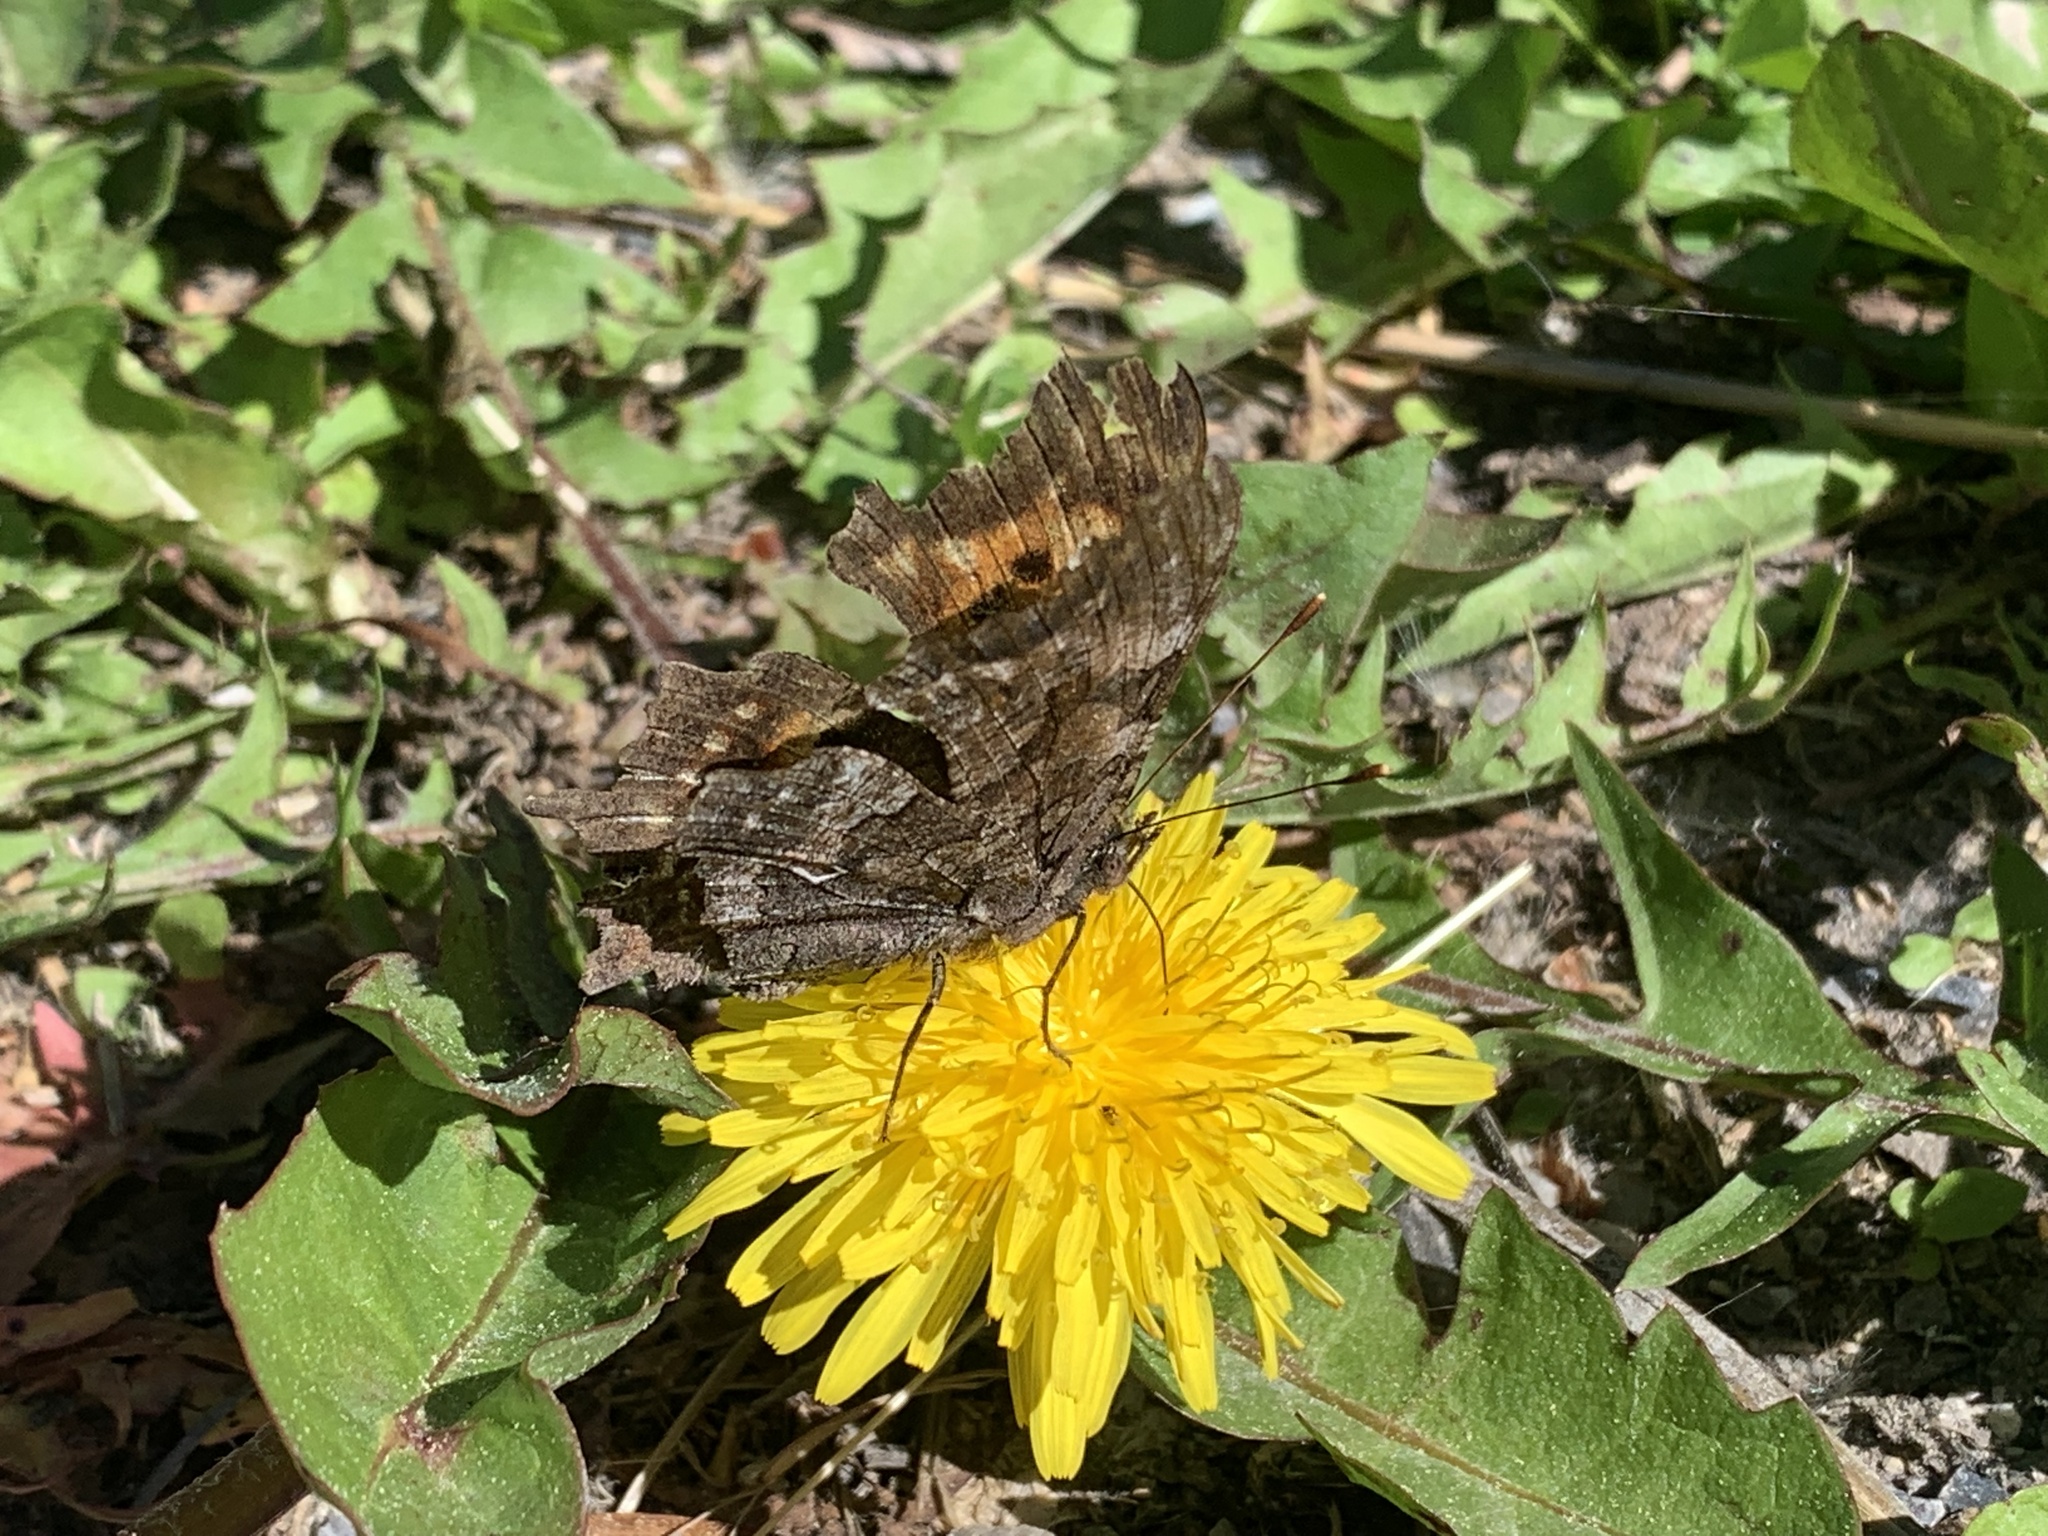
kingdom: Animalia
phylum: Arthropoda
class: Insecta
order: Lepidoptera
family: Nymphalidae
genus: Polygonia
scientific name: Polygonia faunus
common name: Green comma
